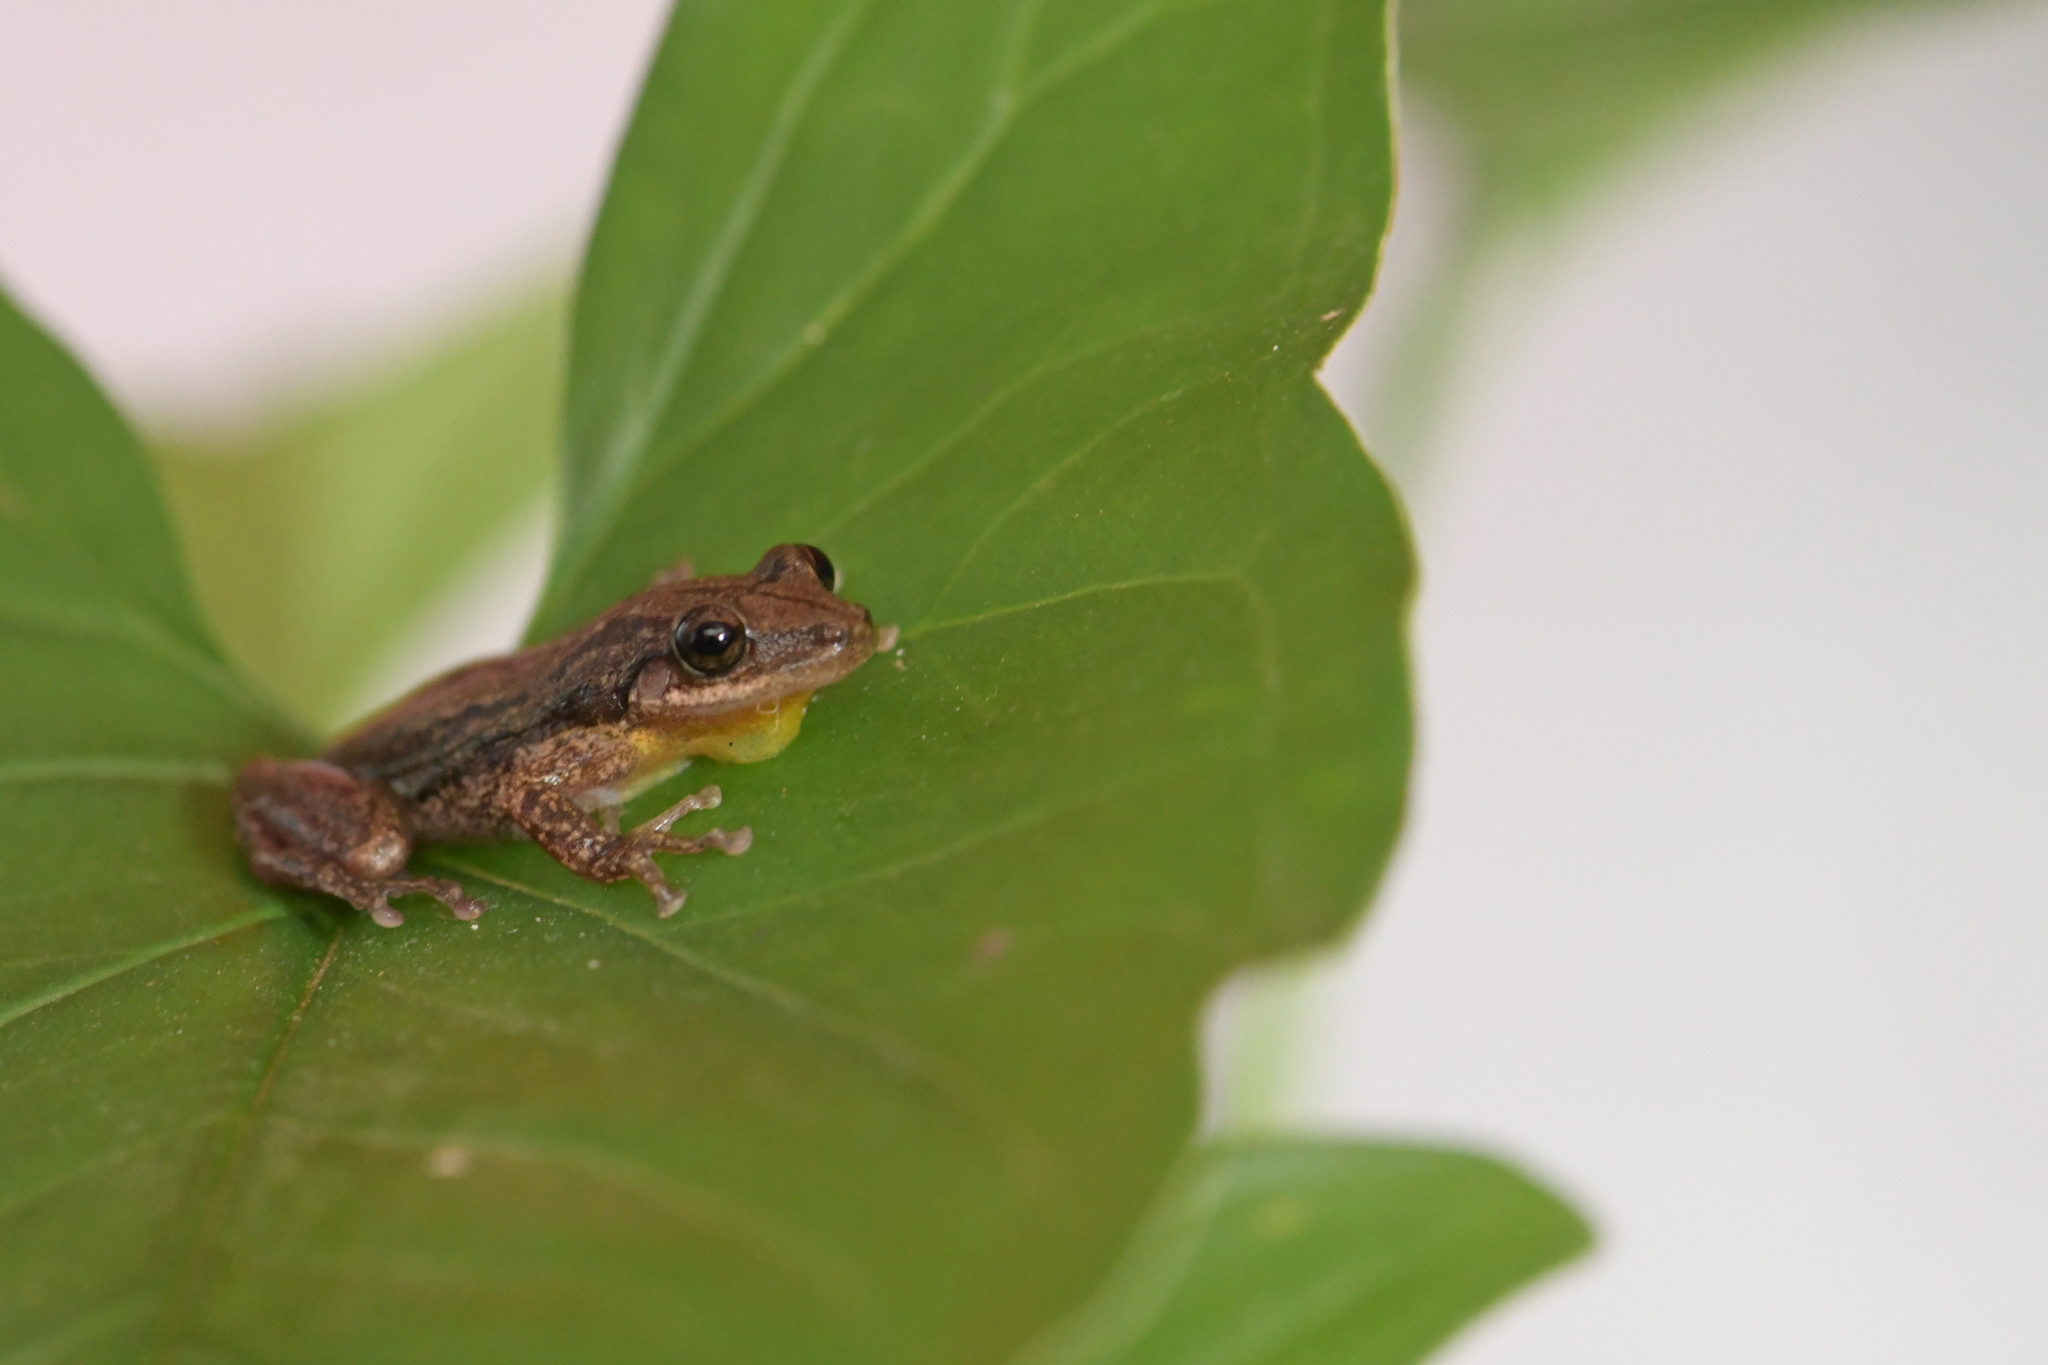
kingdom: Animalia
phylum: Chordata
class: Amphibia
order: Anura
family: Hylidae
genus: Scinax
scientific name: Scinax staufferi
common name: Stauffer's long-nosed treefrog
